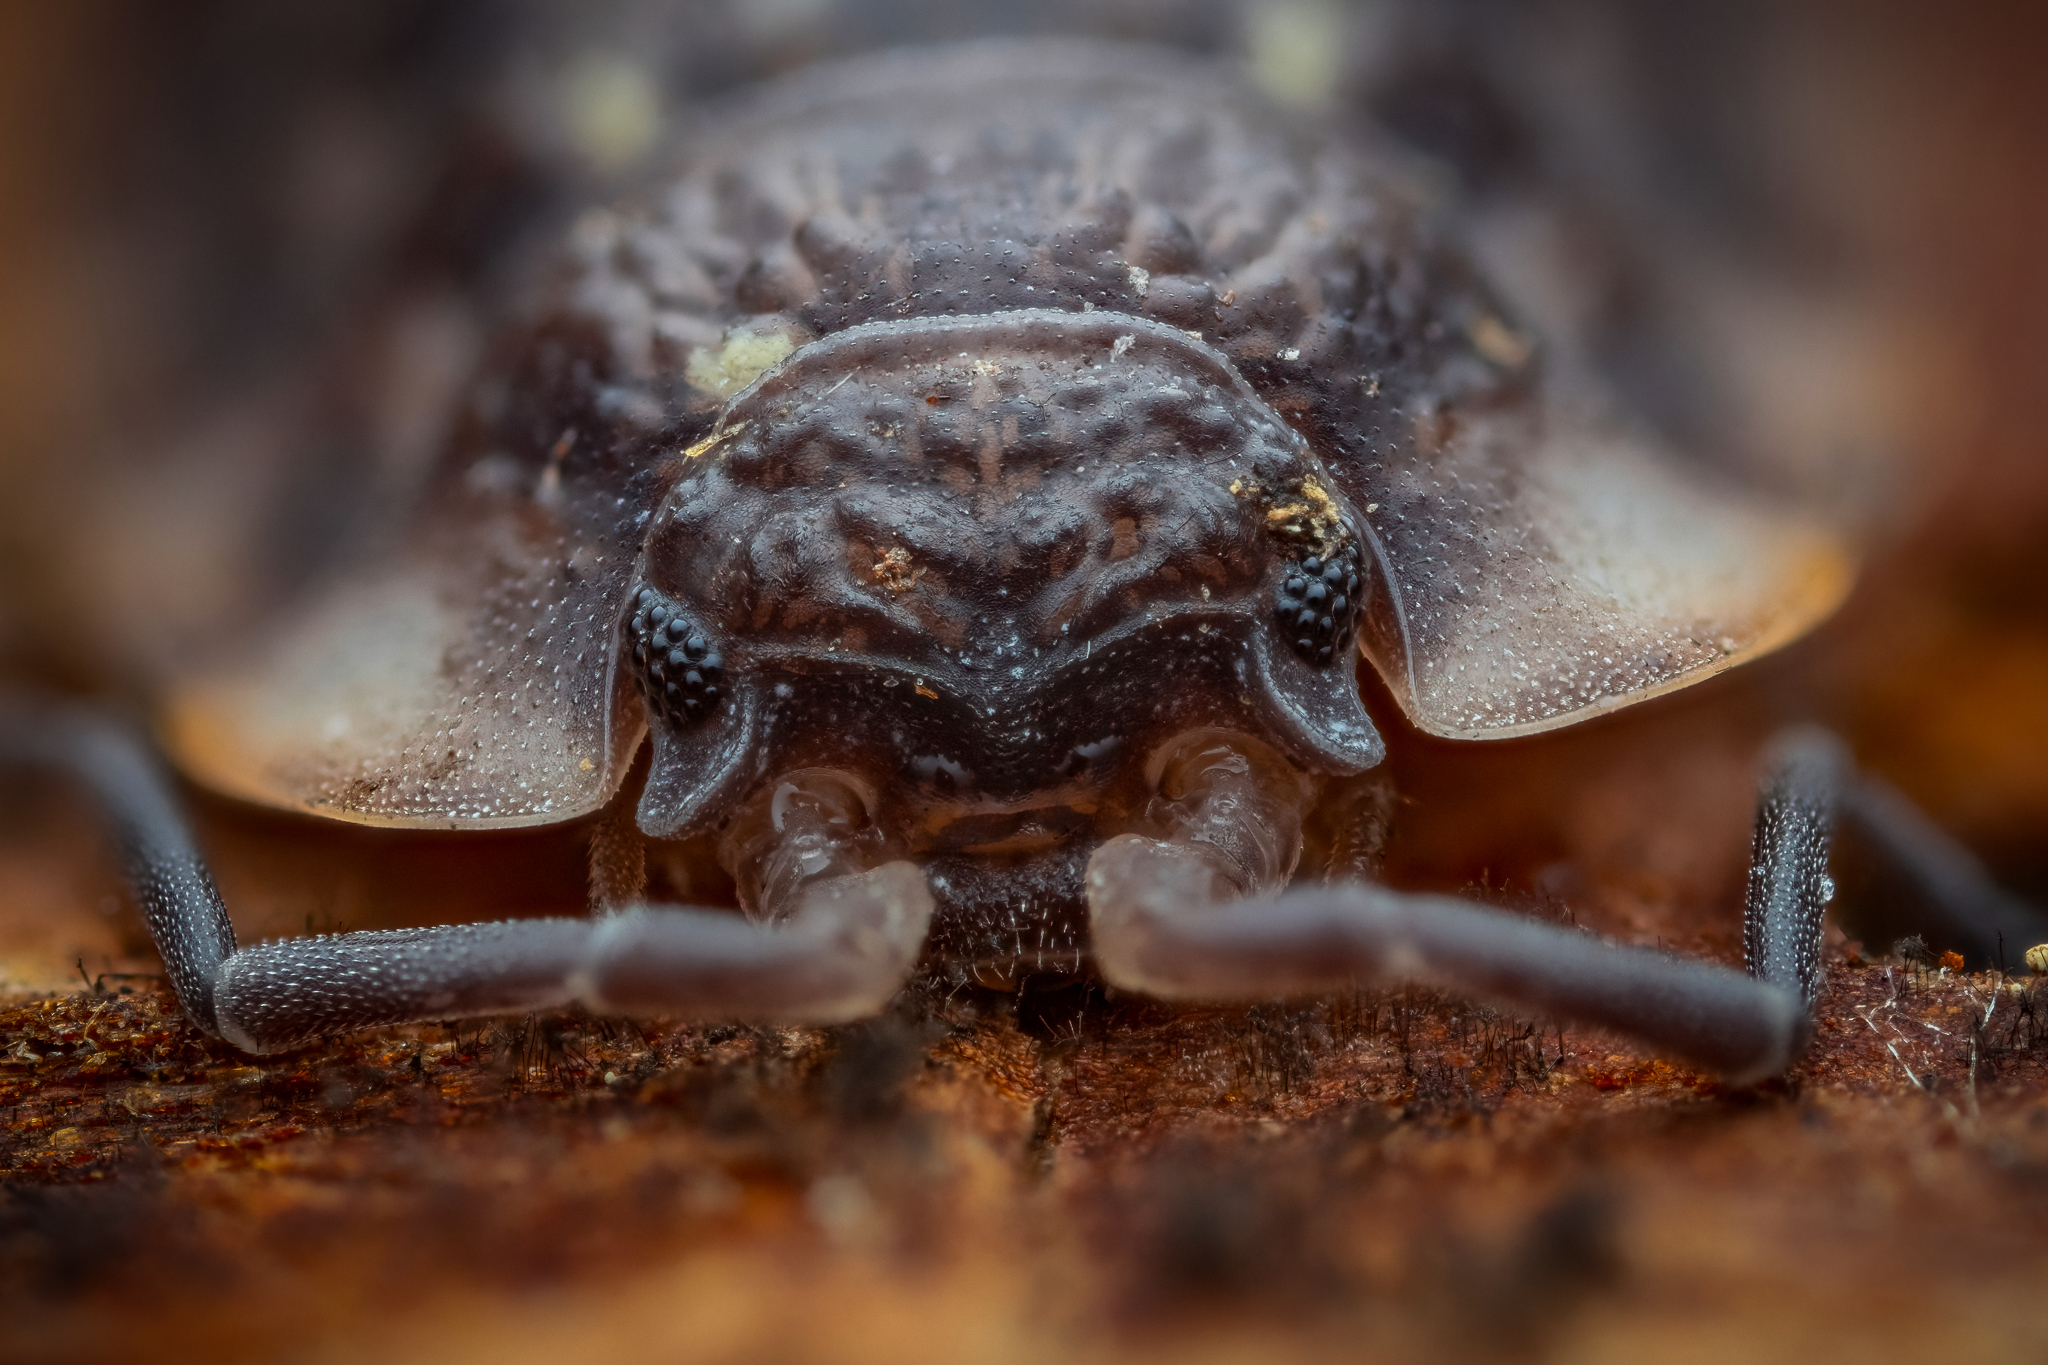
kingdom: Animalia
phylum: Arthropoda
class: Malacostraca
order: Isopoda
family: Oniscidae
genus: Oniscus
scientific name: Oniscus asellus
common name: Common shiny woodlouse
